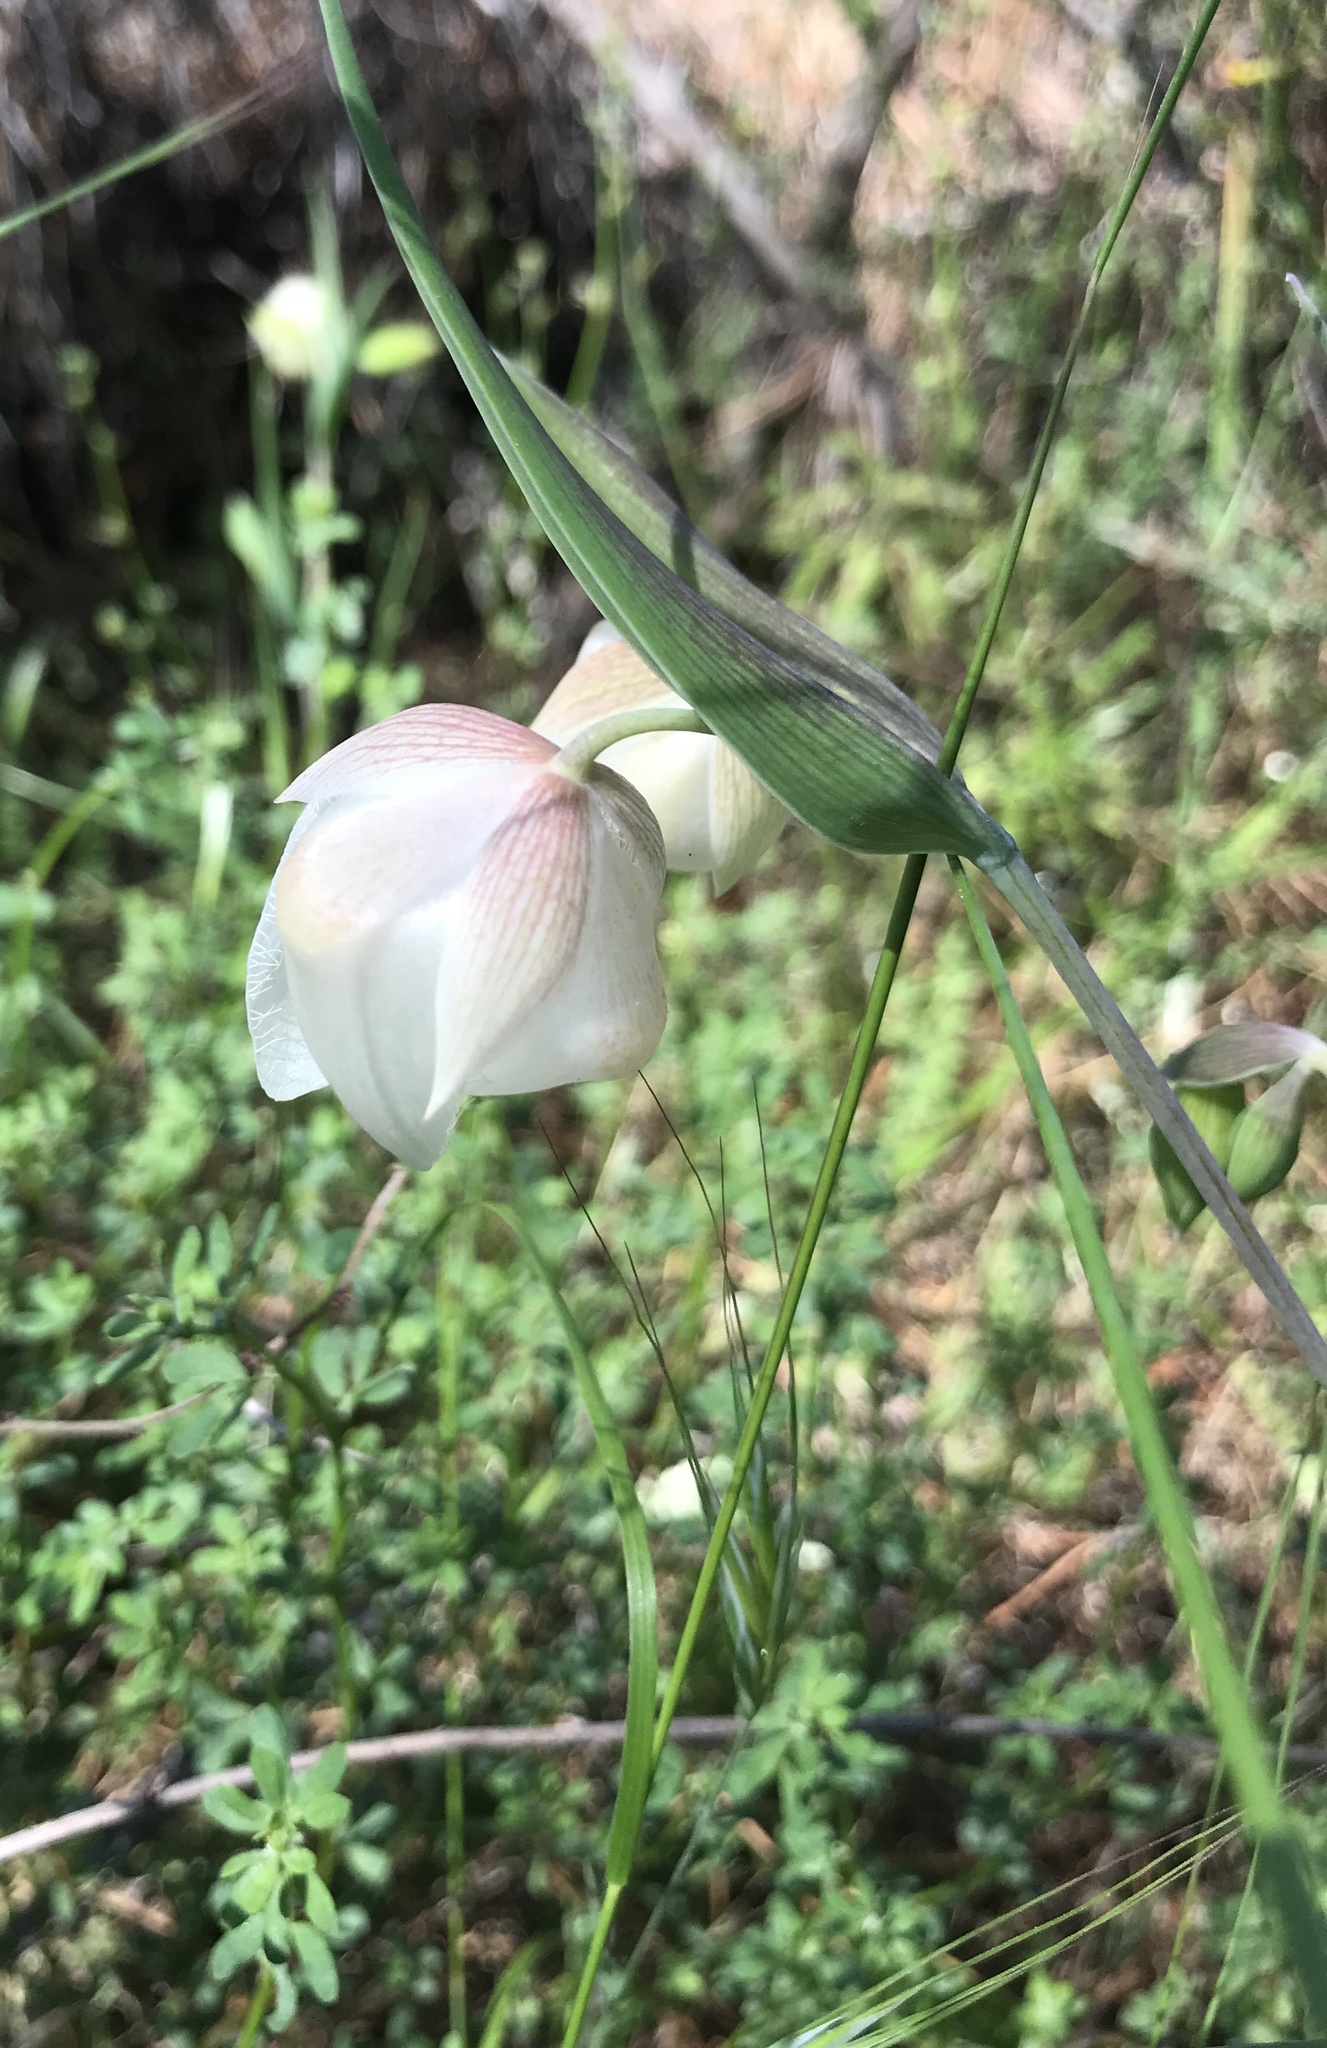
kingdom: Plantae
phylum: Tracheophyta
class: Liliopsida
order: Liliales
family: Liliaceae
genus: Calochortus
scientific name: Calochortus albus
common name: Fairy-lantern
